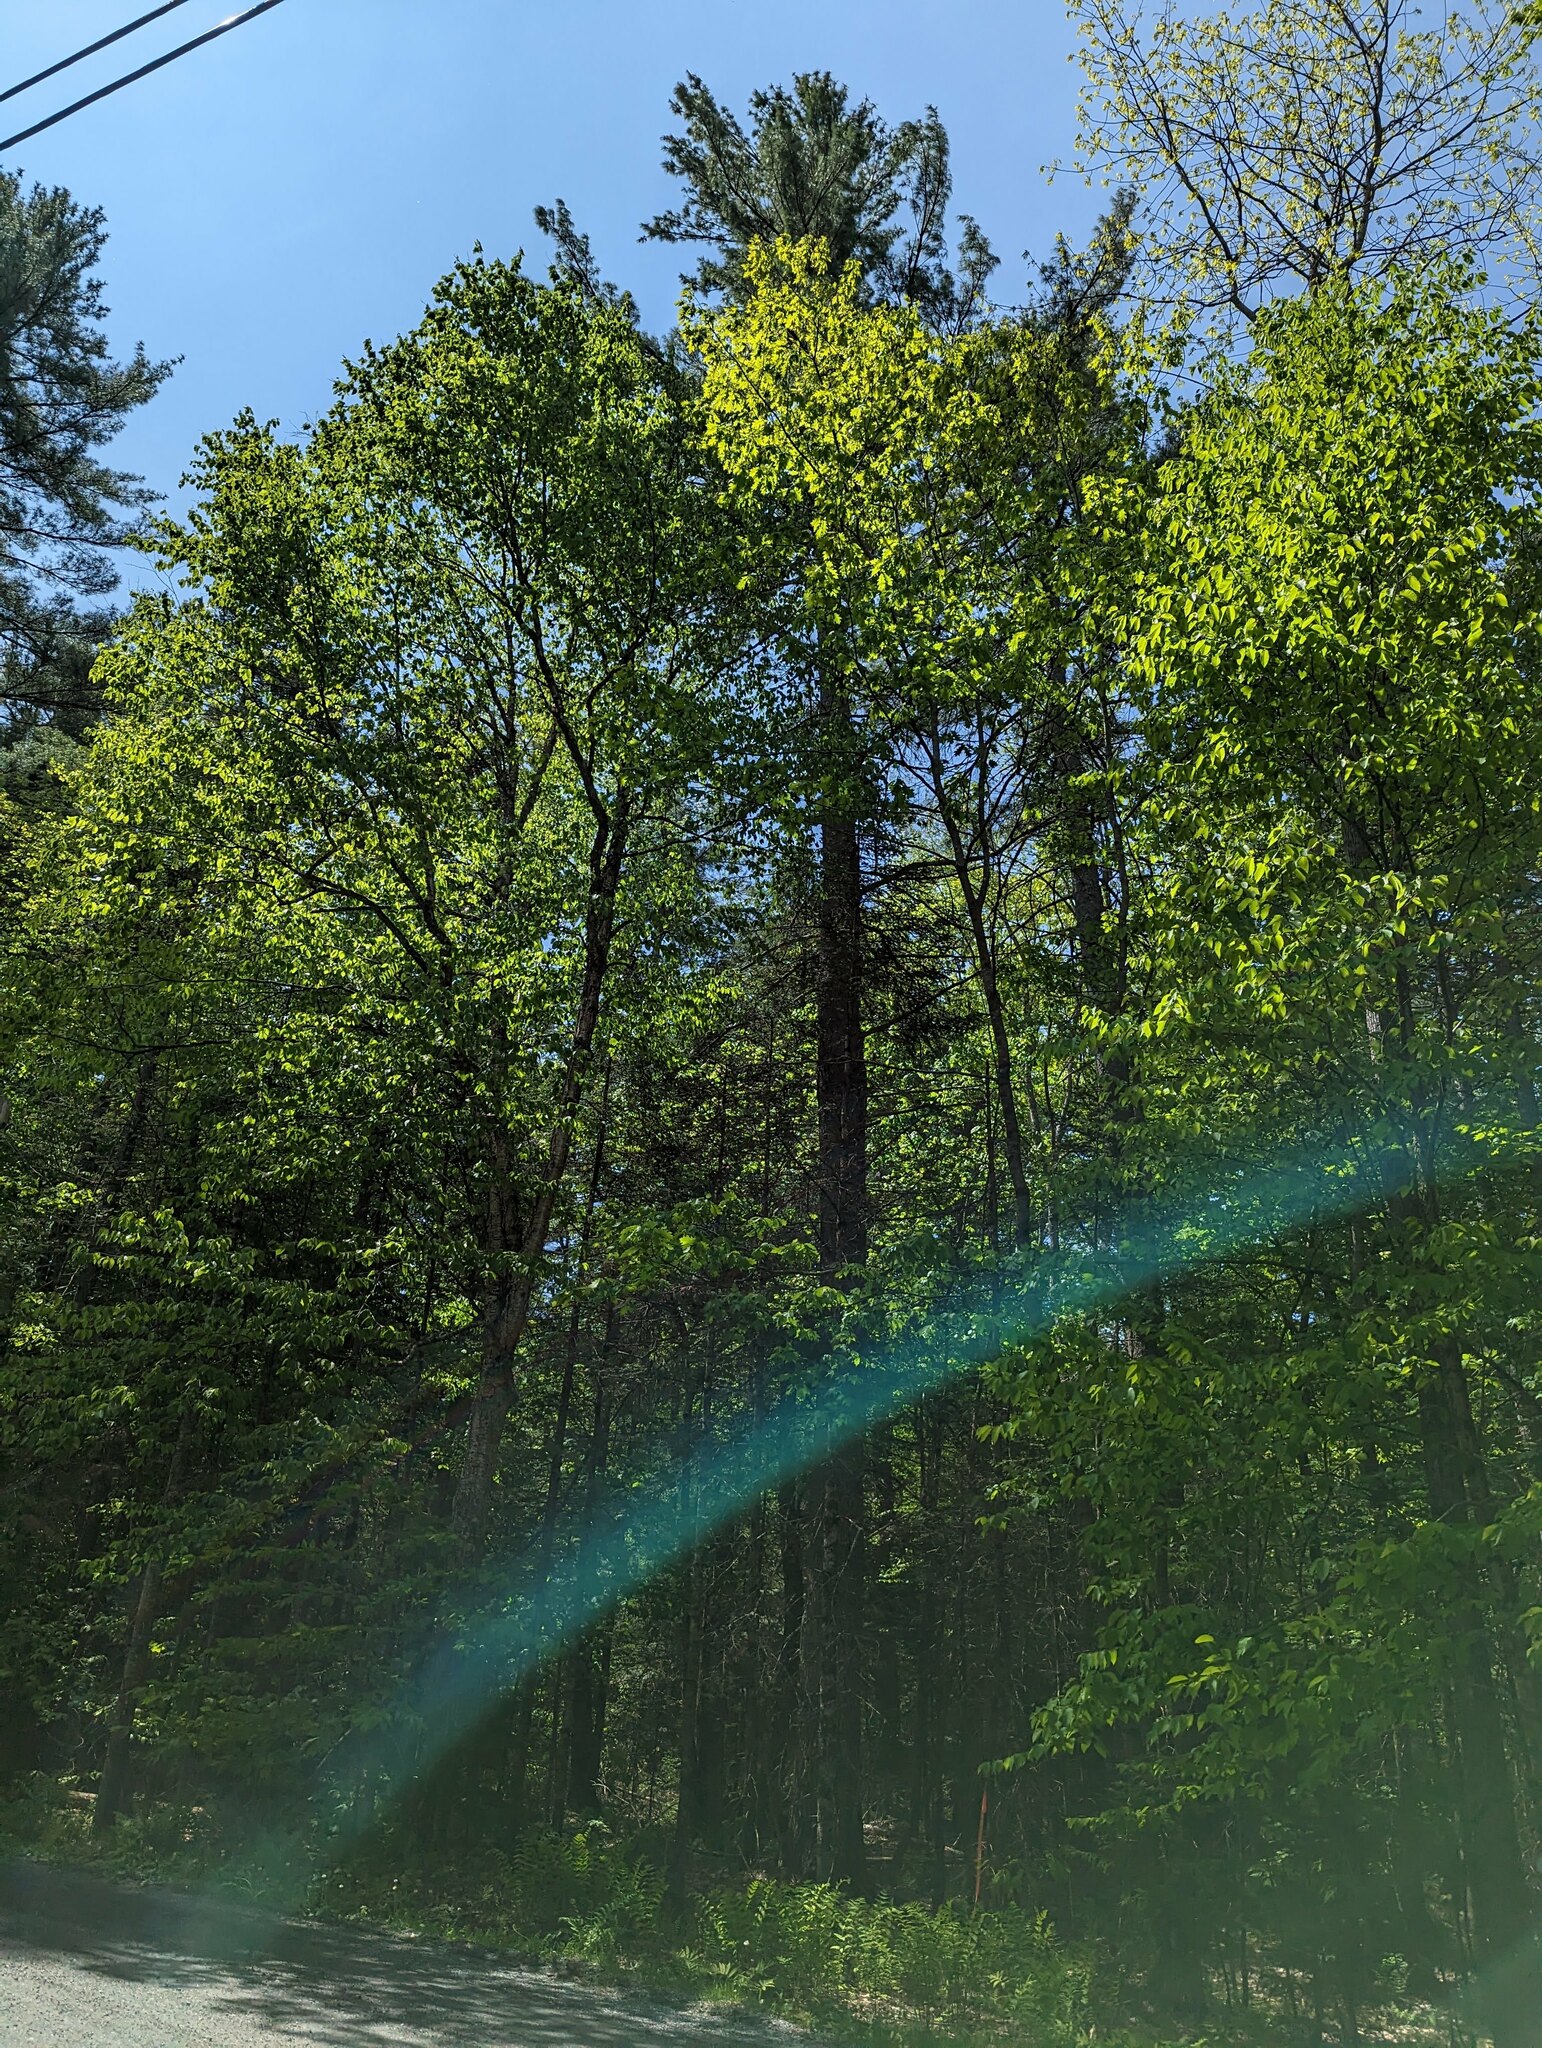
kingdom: Plantae
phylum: Tracheophyta
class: Pinopsida
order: Pinales
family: Pinaceae
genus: Pinus
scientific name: Pinus strobus
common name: Weymouth pine
